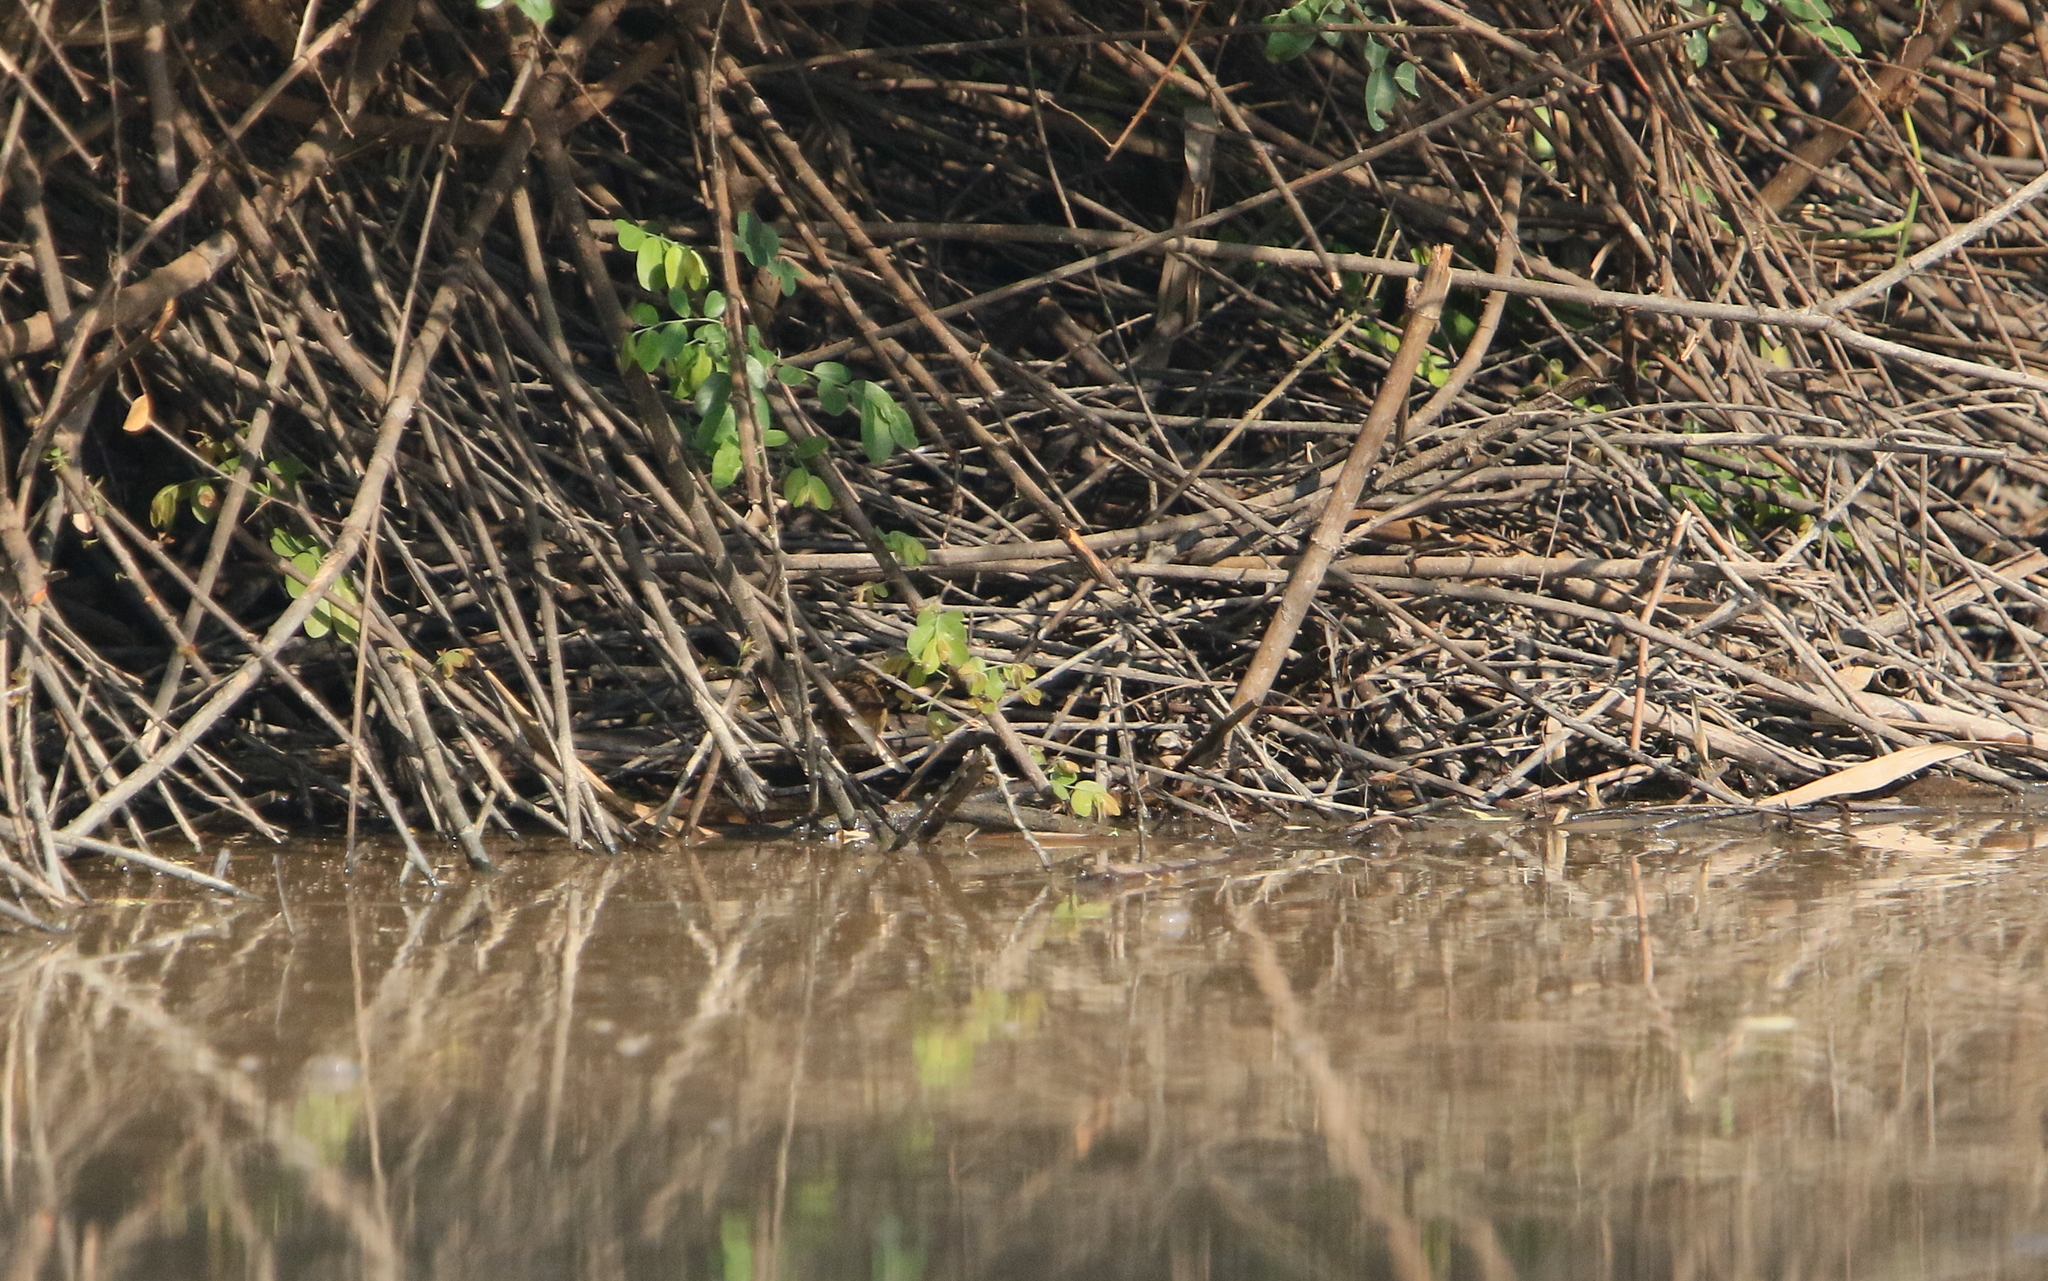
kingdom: Animalia
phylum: Chordata
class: Aves
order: Passeriformes
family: Locustellidae
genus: Locustella
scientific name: Locustella certhiola
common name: Pallas's grasshopper warbler
